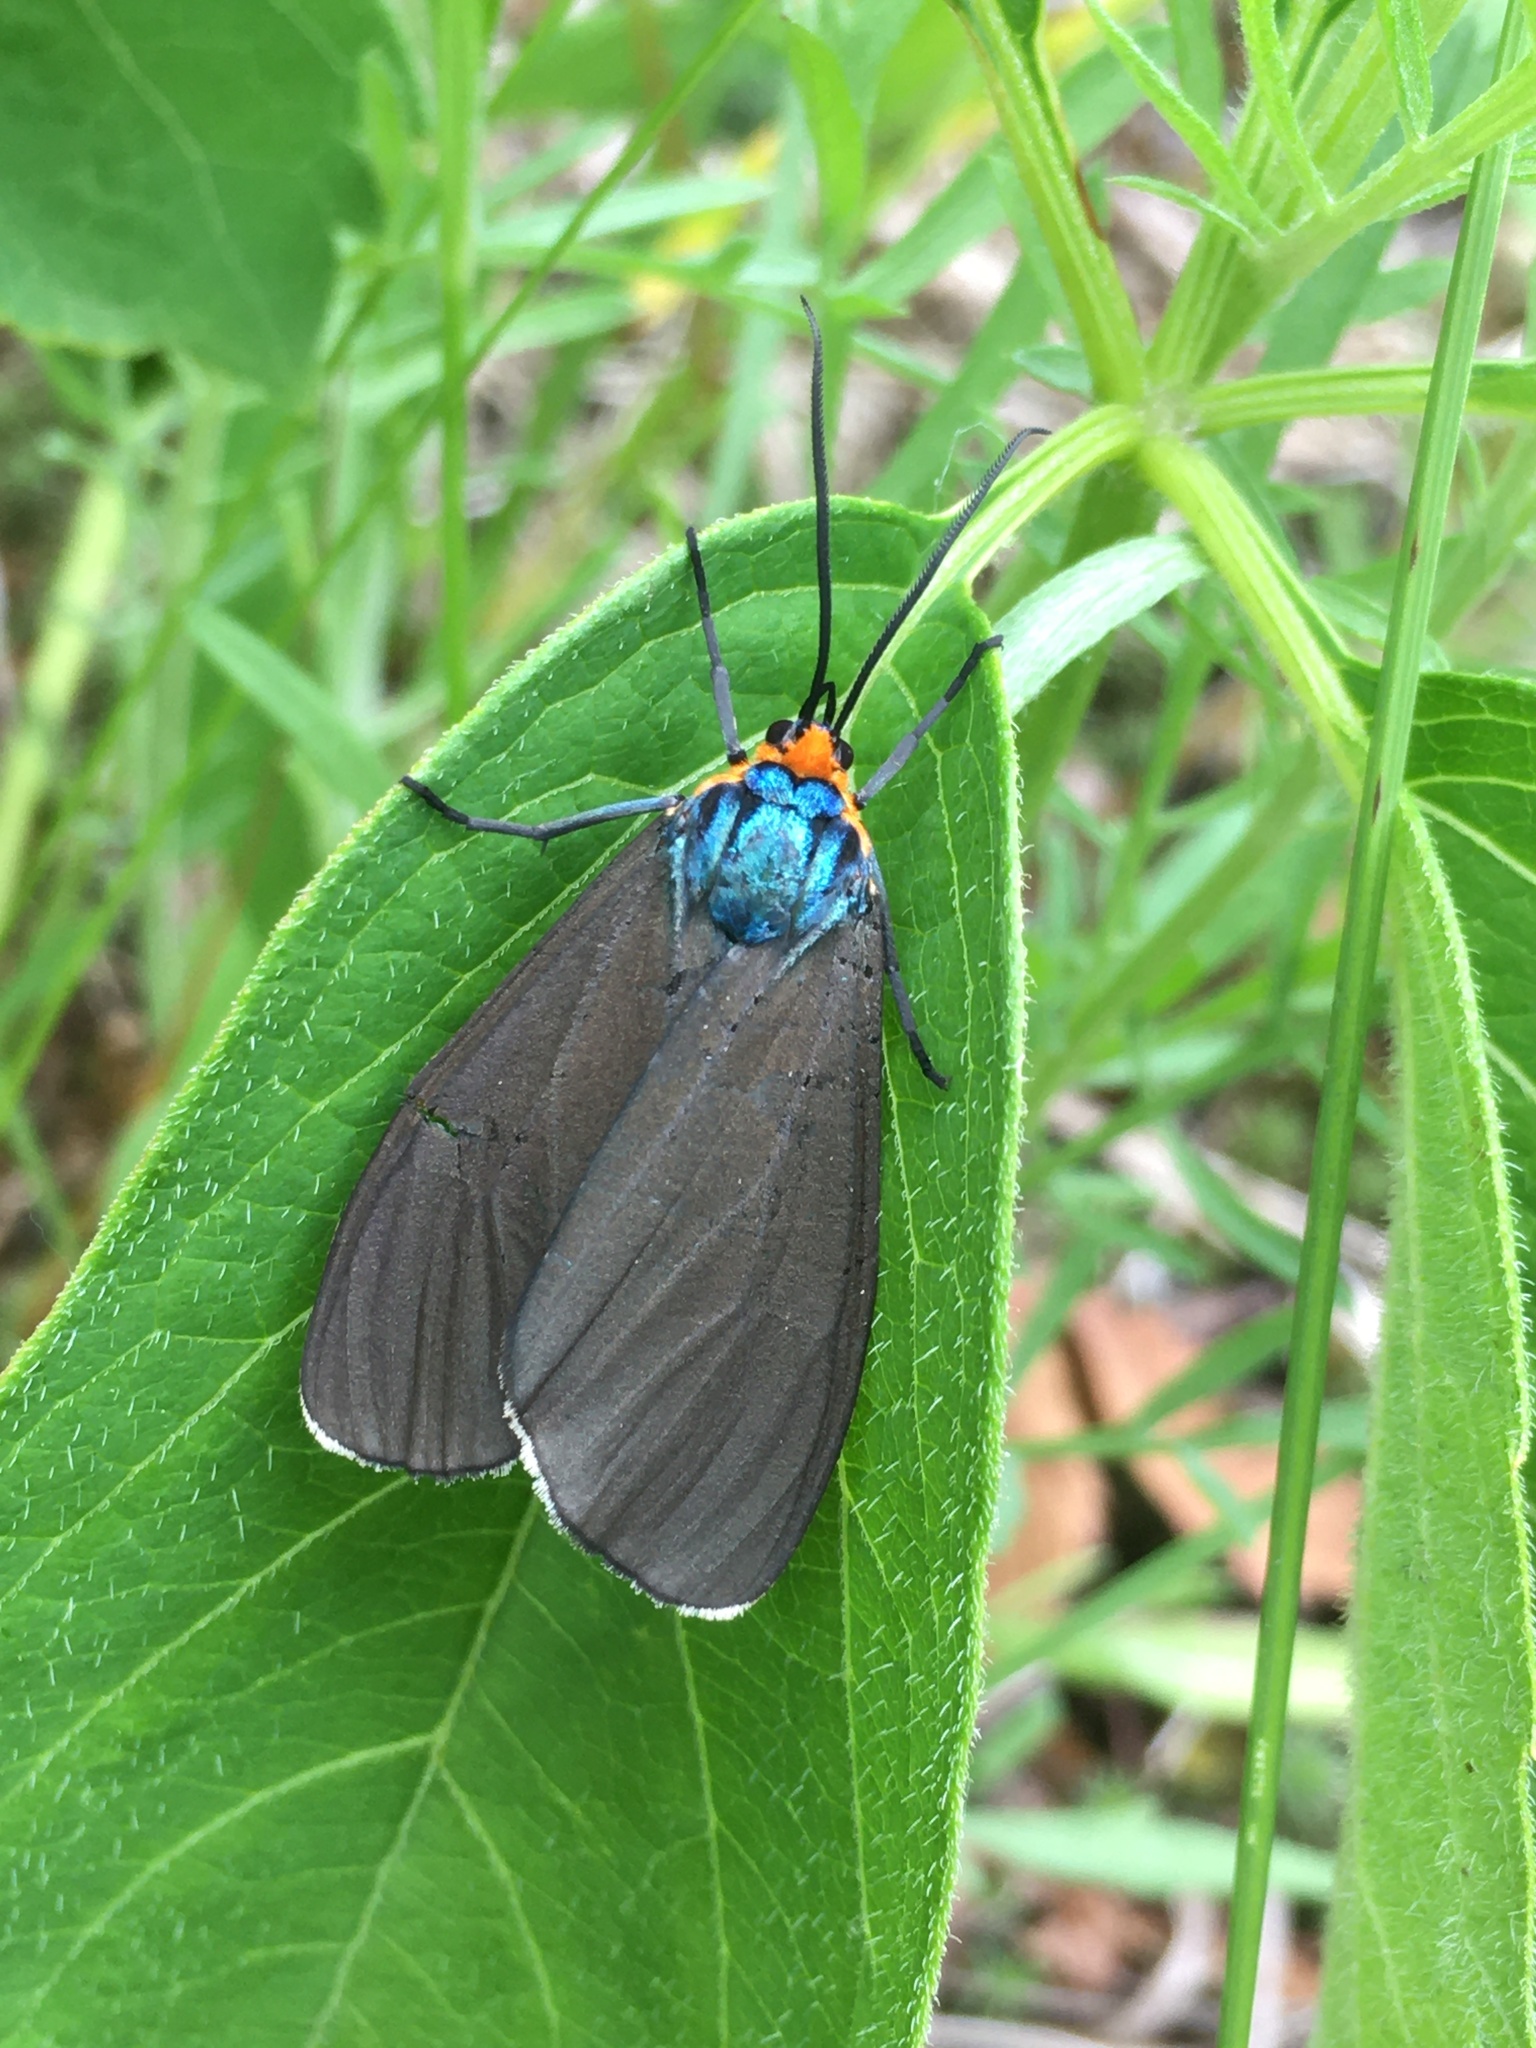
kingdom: Animalia
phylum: Arthropoda
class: Insecta
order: Lepidoptera
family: Erebidae
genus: Ctenucha
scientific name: Ctenucha virginica
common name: Virginia ctenucha moth
